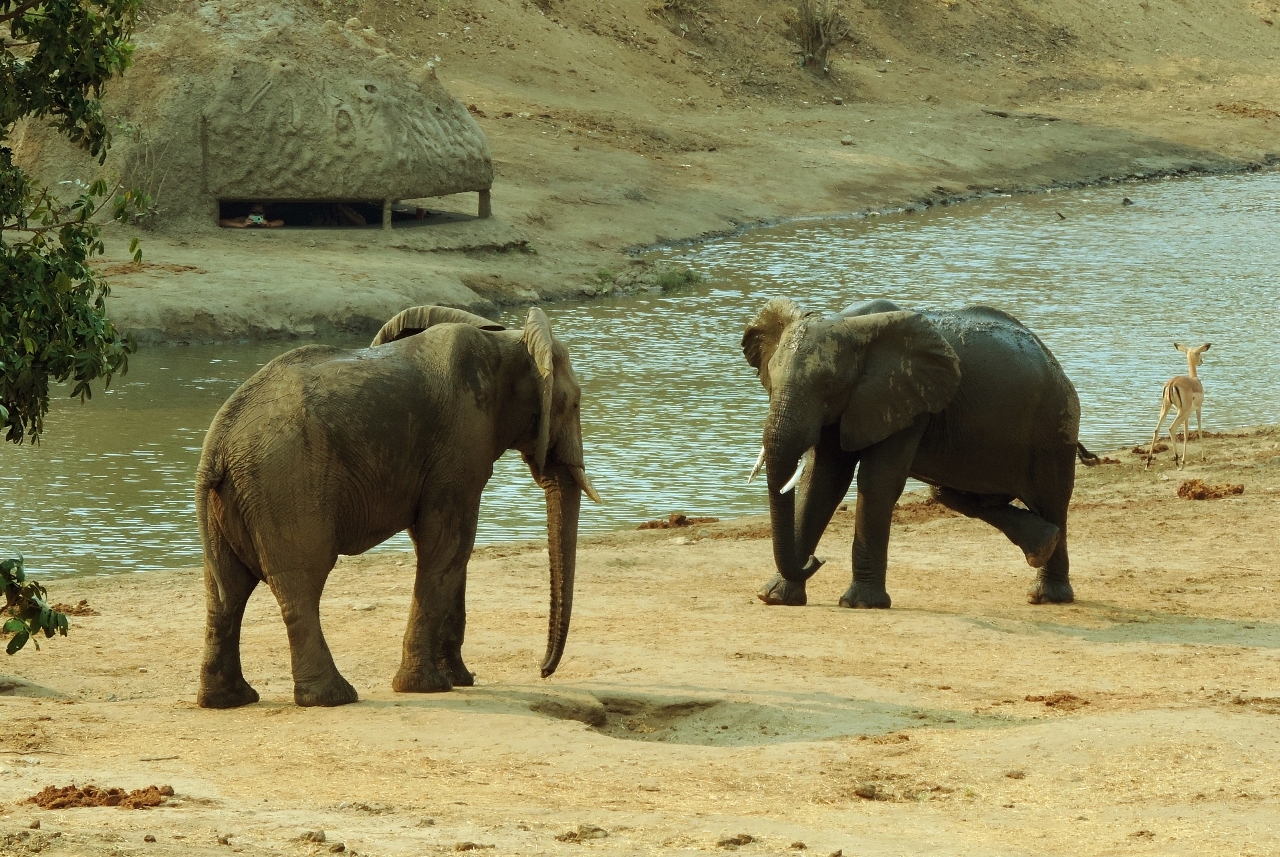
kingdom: Animalia
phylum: Chordata
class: Mammalia
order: Proboscidea
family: Elephantidae
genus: Loxodonta
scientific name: Loxodonta africana
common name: African elephant
